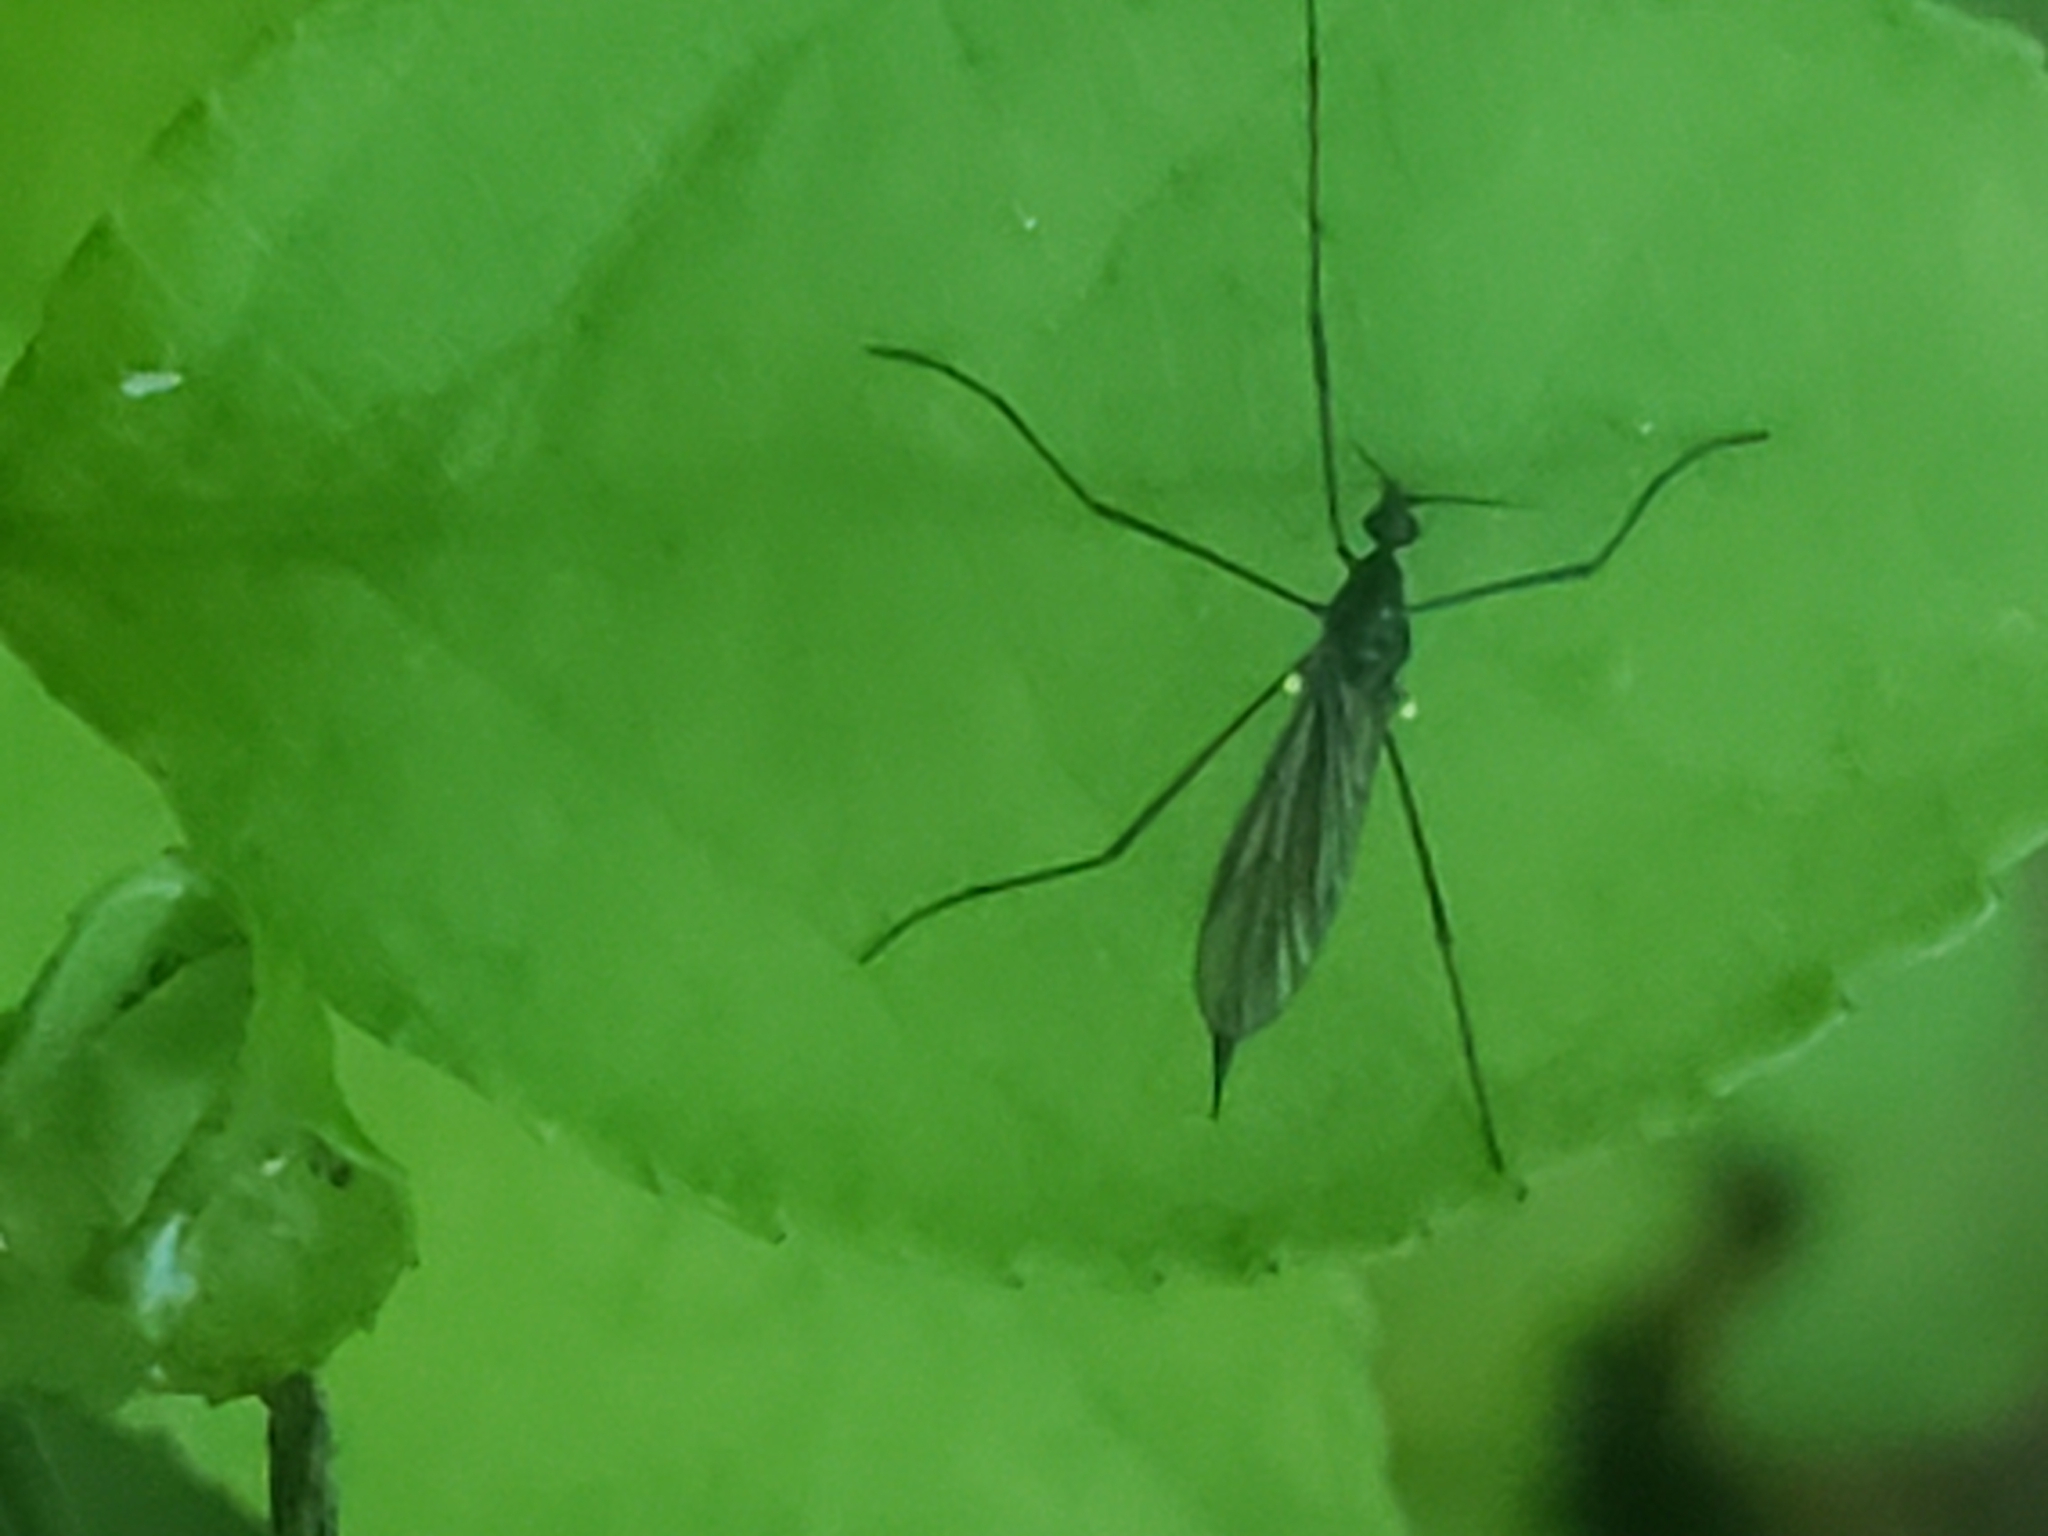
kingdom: Animalia
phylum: Arthropoda
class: Insecta
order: Diptera
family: Limoniidae
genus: Gnophomyia
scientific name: Gnophomyia tristissima
